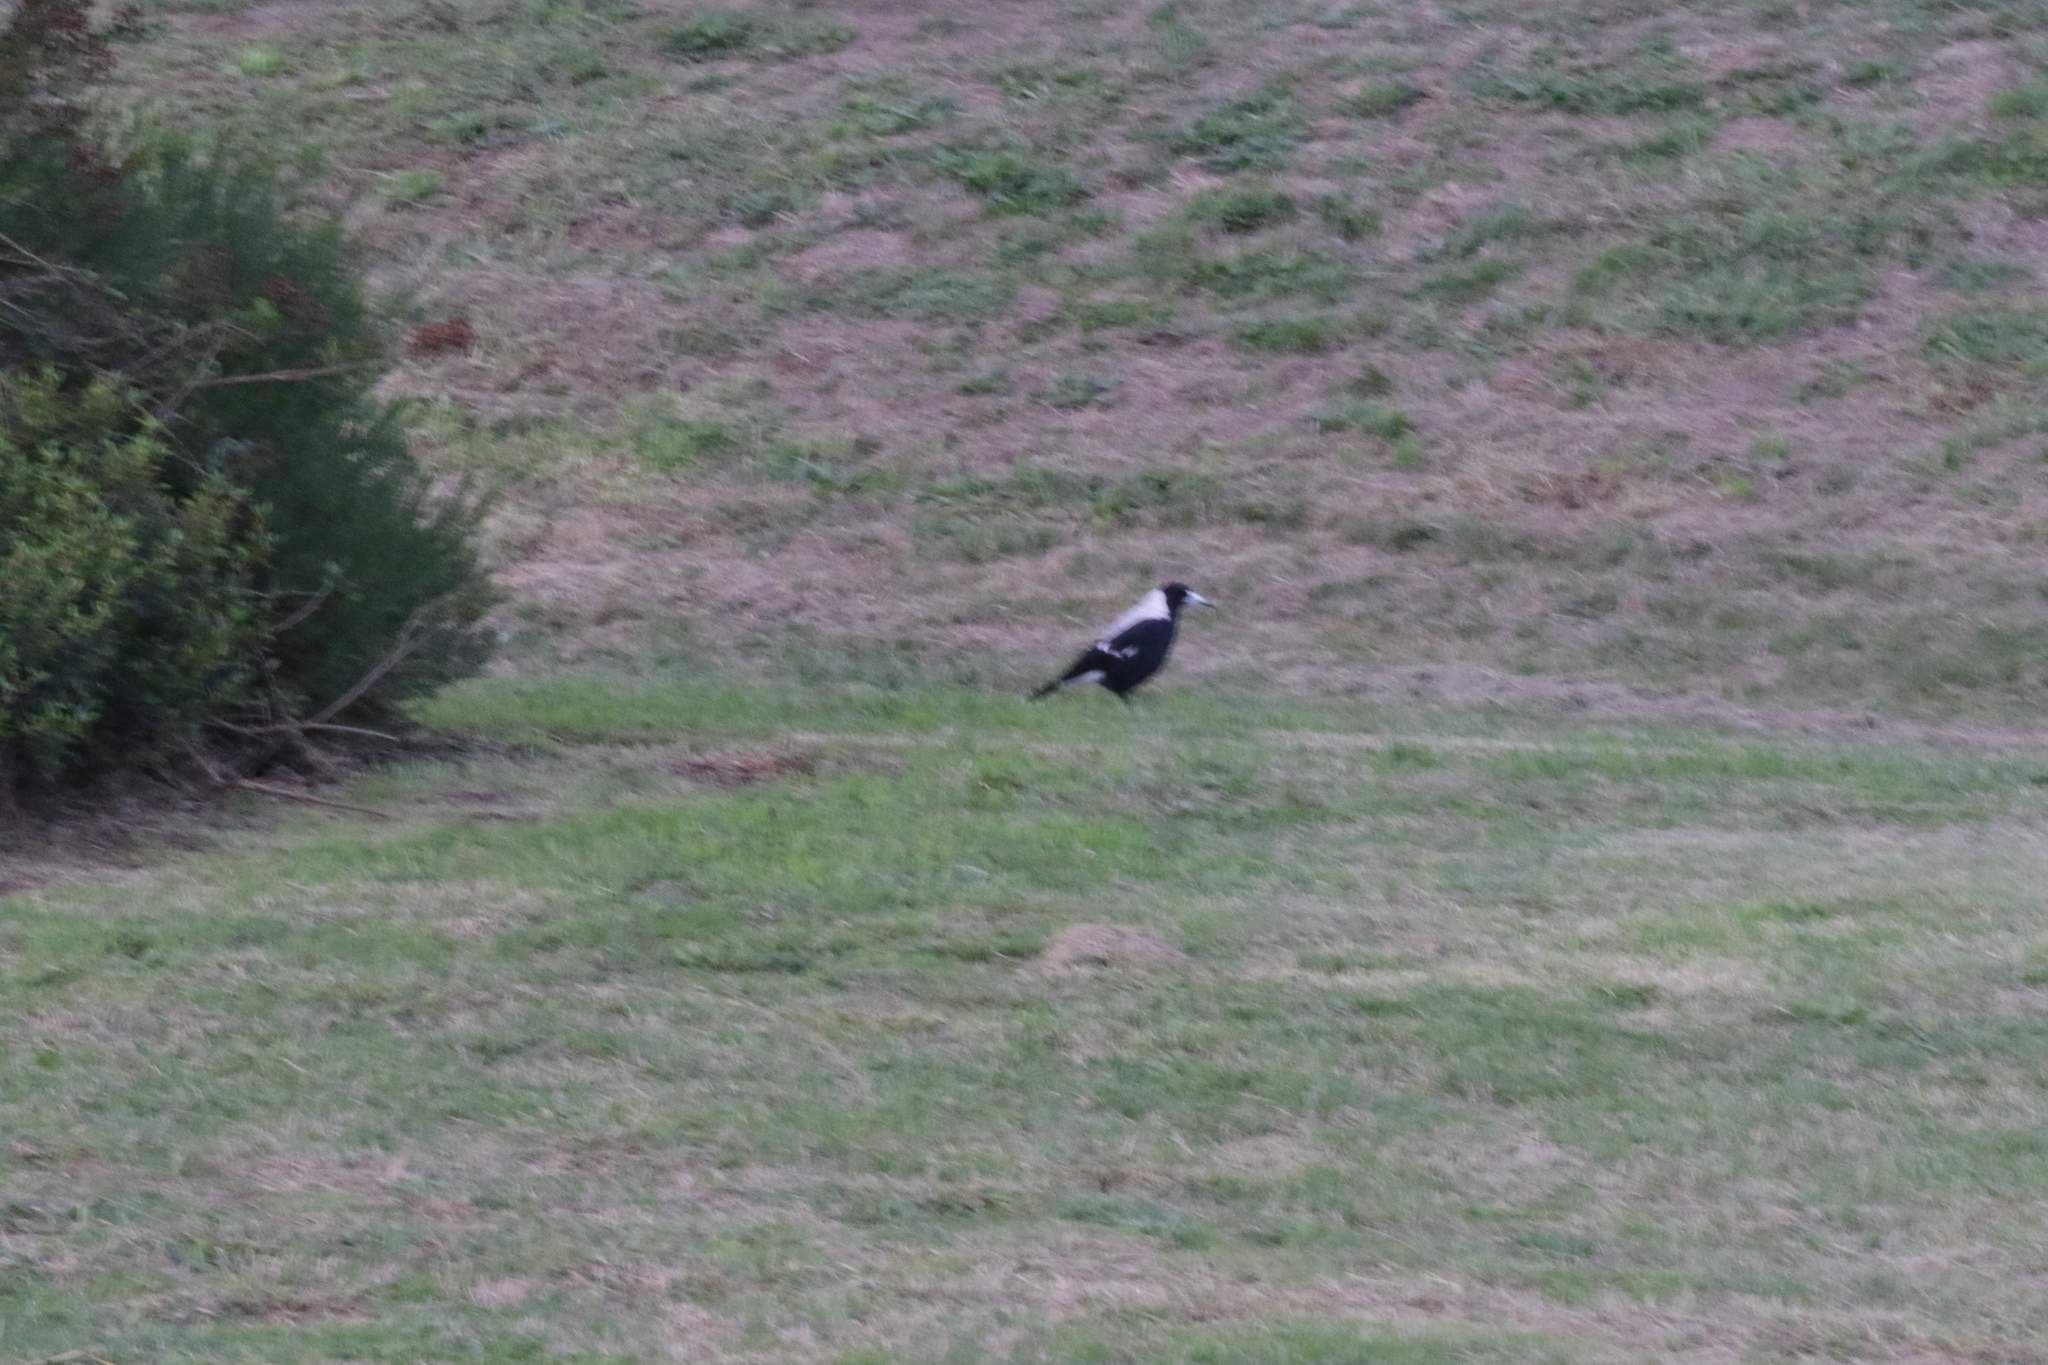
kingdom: Animalia
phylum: Chordata
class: Aves
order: Passeriformes
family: Cracticidae
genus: Gymnorhina
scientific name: Gymnorhina tibicen
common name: Australian magpie
